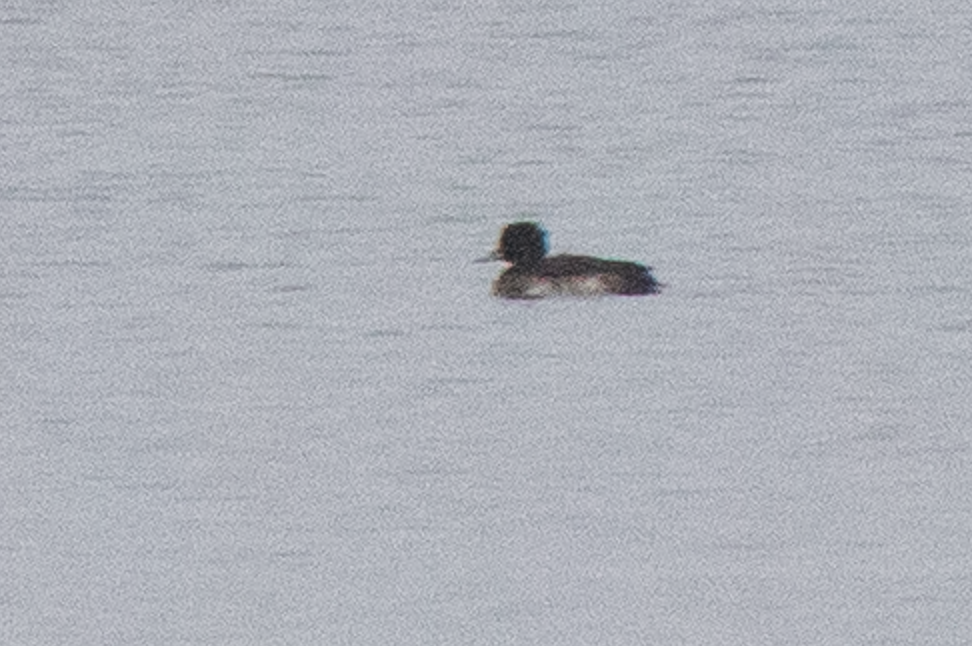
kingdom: Animalia
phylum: Chordata
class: Aves
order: Anseriformes
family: Anatidae
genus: Aythya
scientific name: Aythya fuligula
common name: Tufted duck
